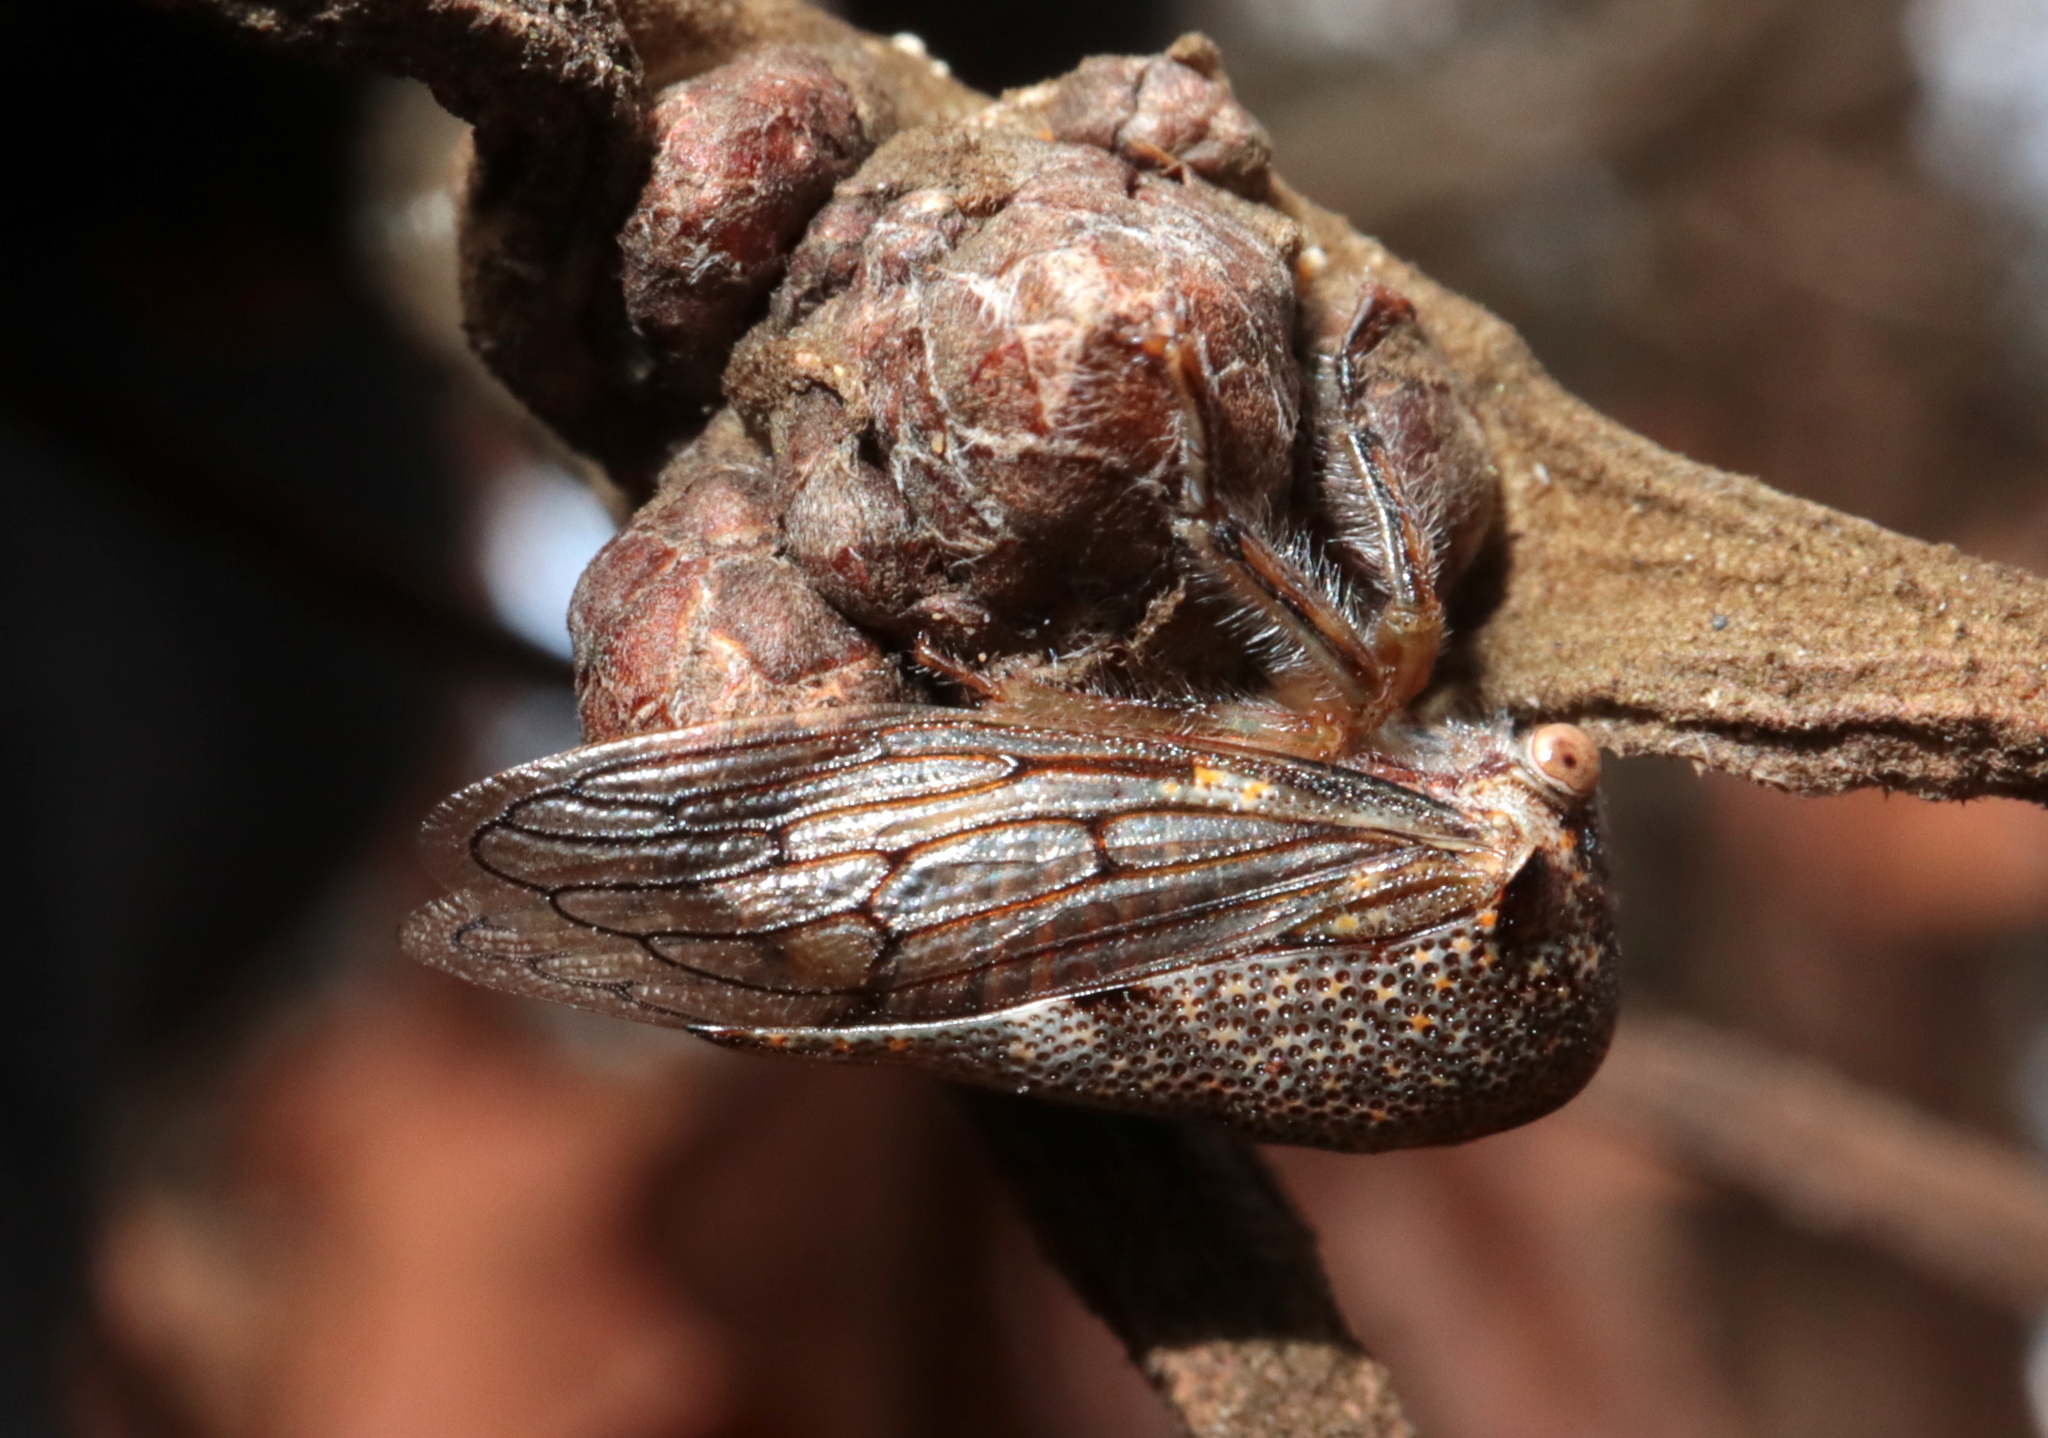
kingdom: Animalia
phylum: Arthropoda
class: Insecta
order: Hemiptera
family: Membracidae
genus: Platycotis
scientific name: Platycotis vittatus
